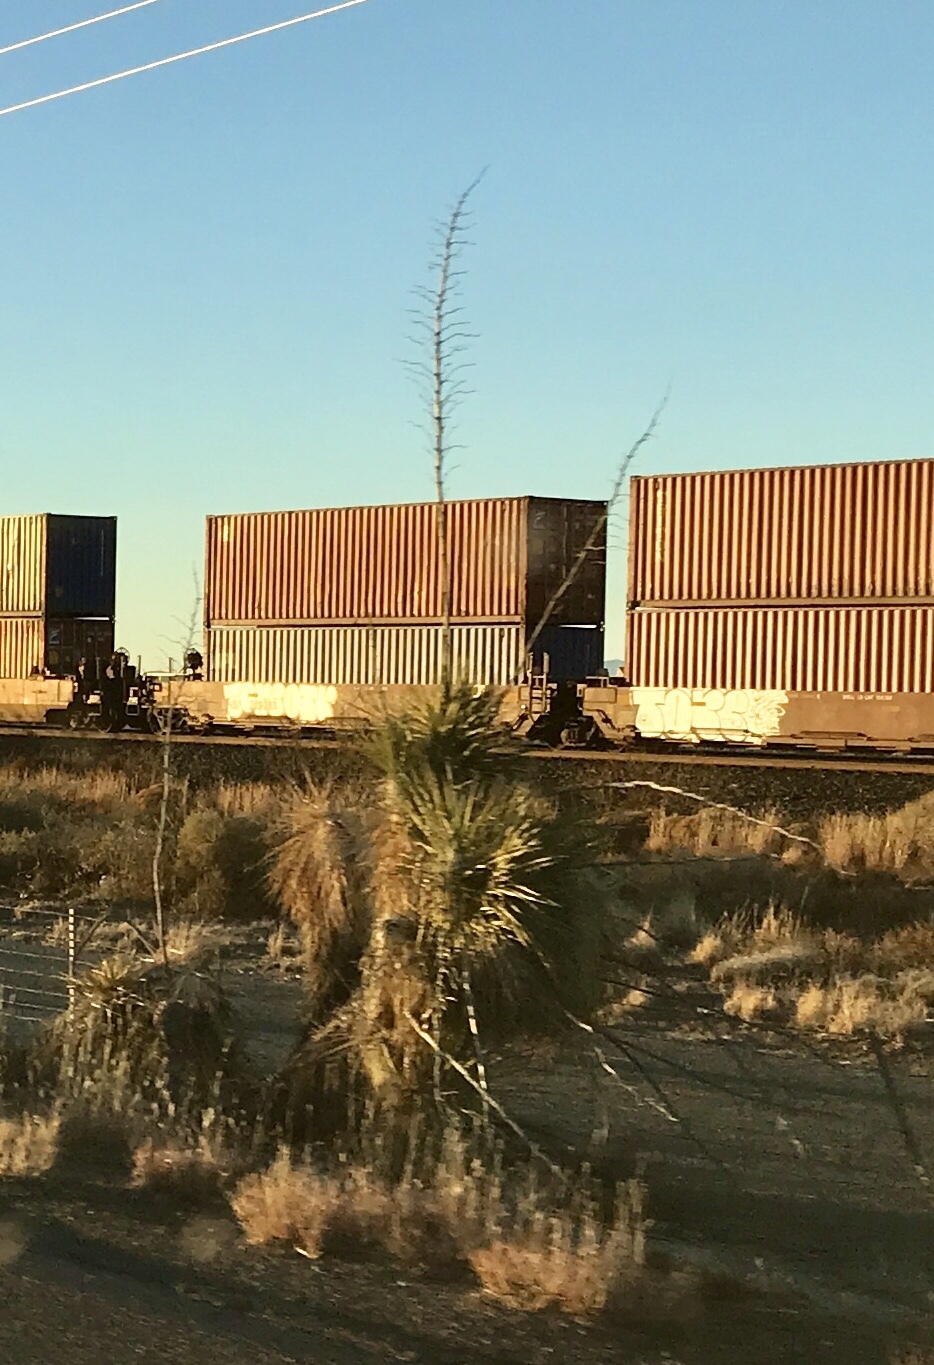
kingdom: Plantae
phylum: Tracheophyta
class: Liliopsida
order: Asparagales
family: Asparagaceae
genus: Yucca
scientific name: Yucca elata
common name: Palmella
